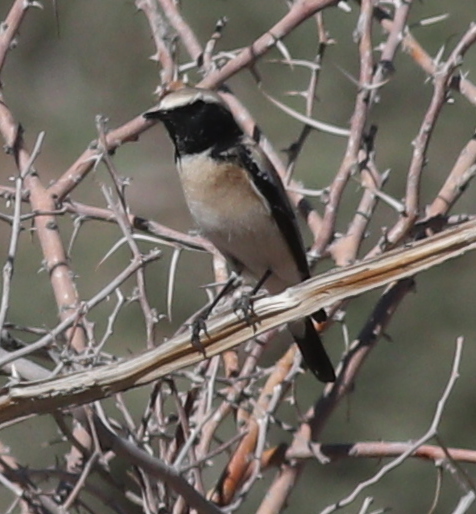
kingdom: Animalia
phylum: Chordata
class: Aves
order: Passeriformes
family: Muscicapidae
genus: Oenanthe
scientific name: Oenanthe deserti
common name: Desert wheatear
